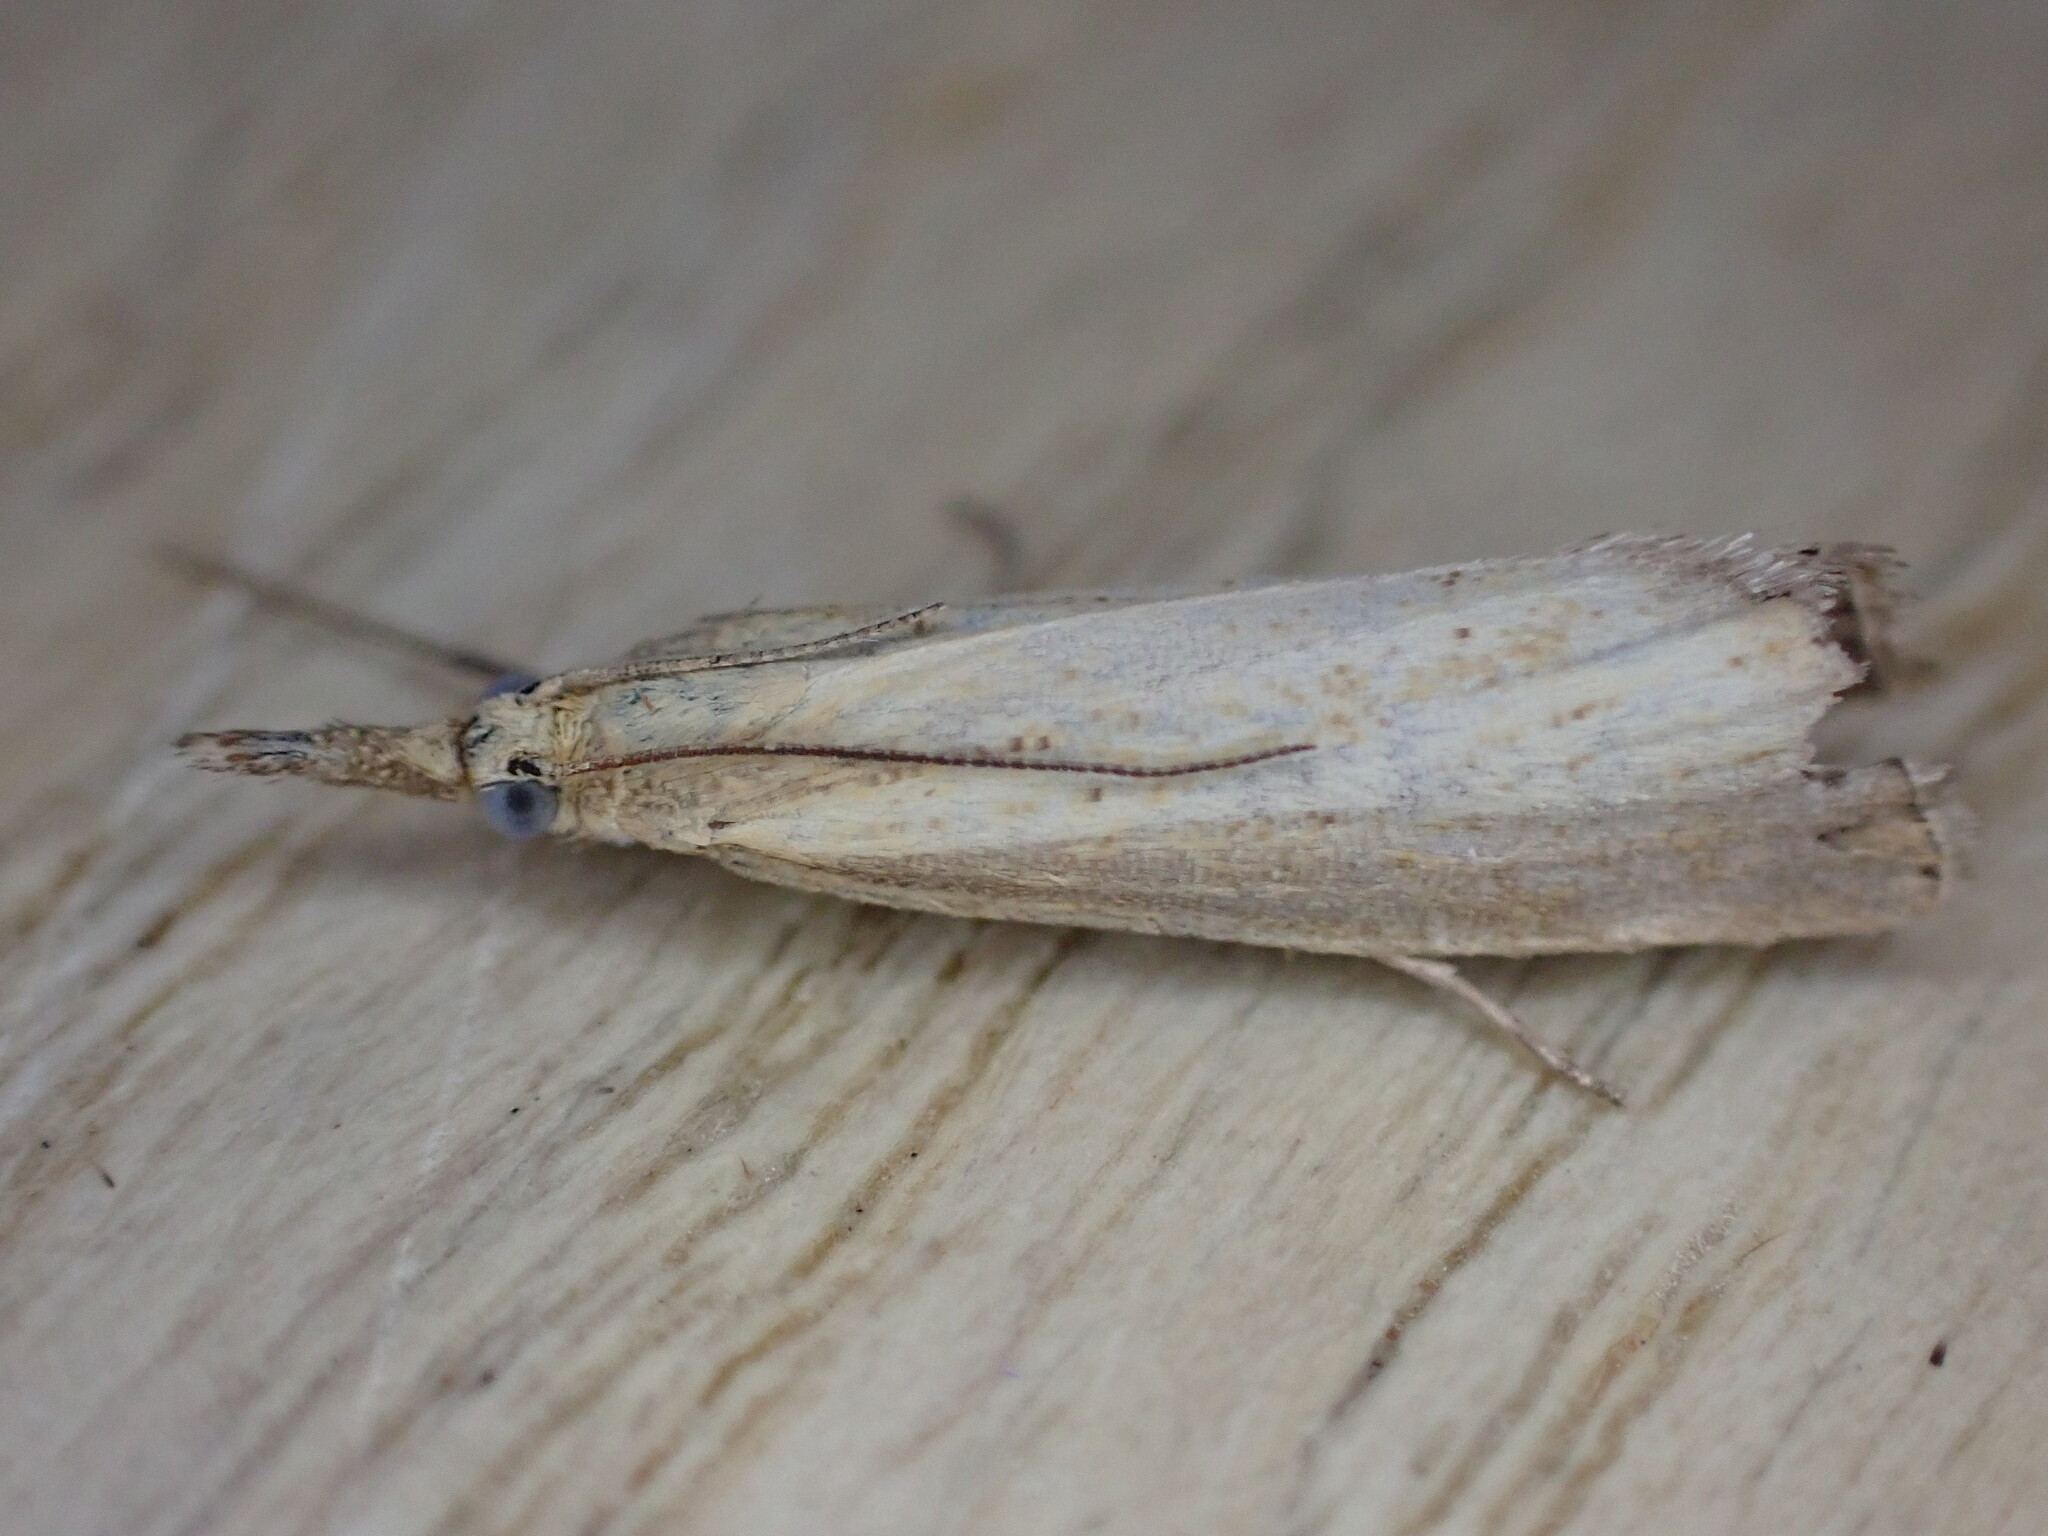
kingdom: Animalia
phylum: Arthropoda
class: Insecta
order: Lepidoptera
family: Crambidae
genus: Agriphila
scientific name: Agriphila straminella
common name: Straw grass-veneer
